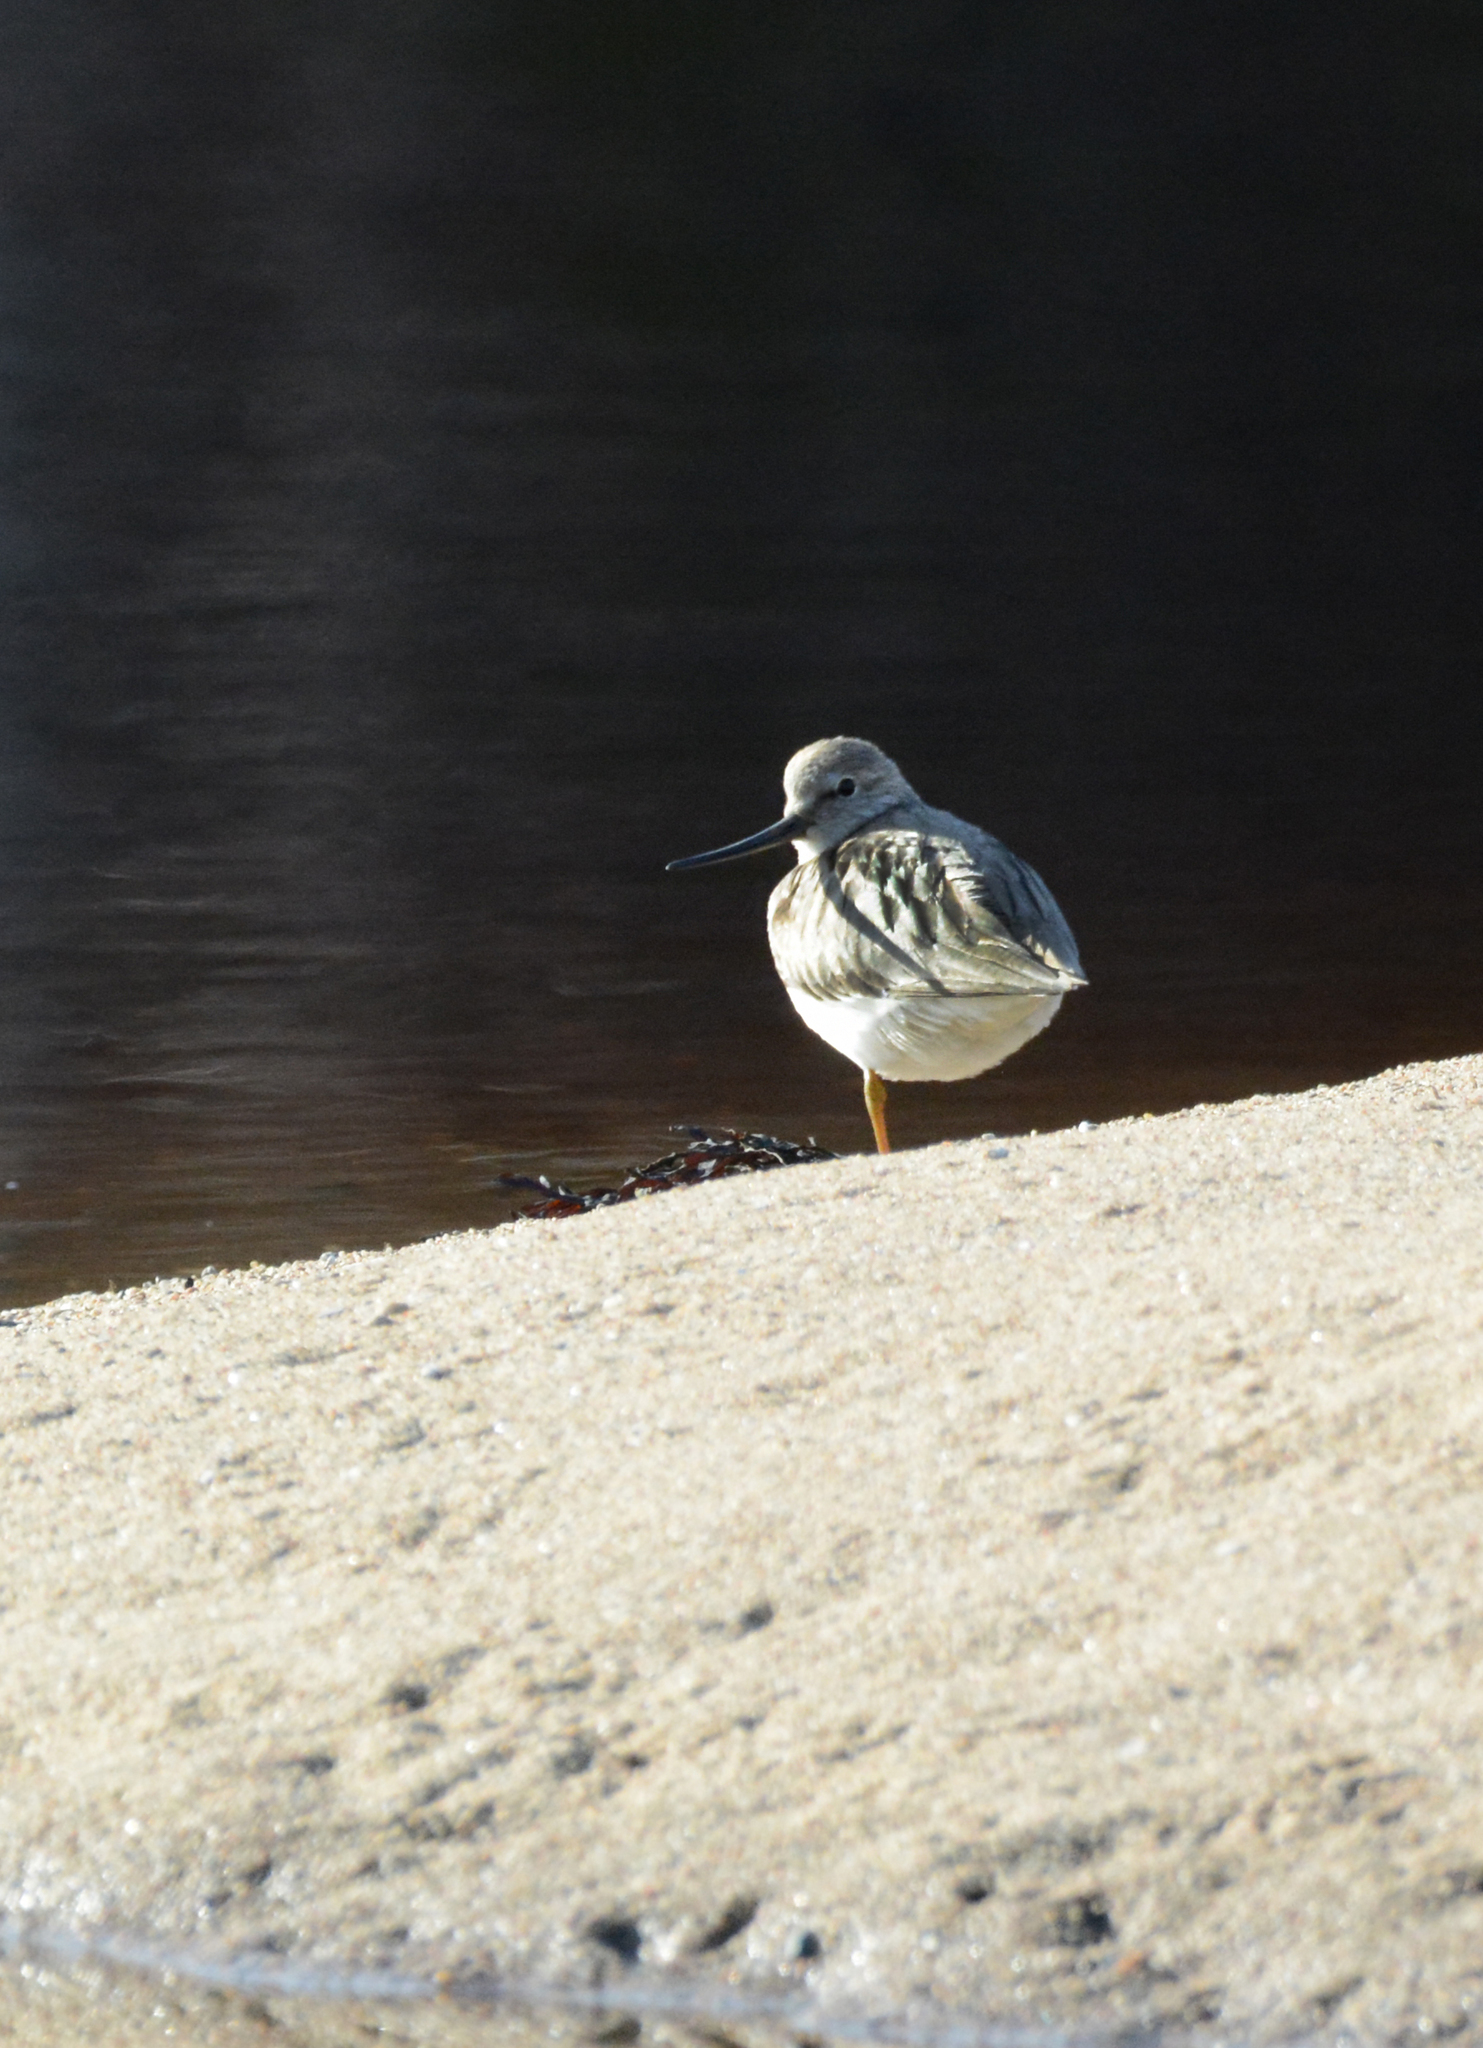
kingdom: Animalia
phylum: Chordata
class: Aves
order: Charadriiformes
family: Scolopacidae
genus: Xenus
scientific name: Xenus cinereus
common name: Terek sandpiper
